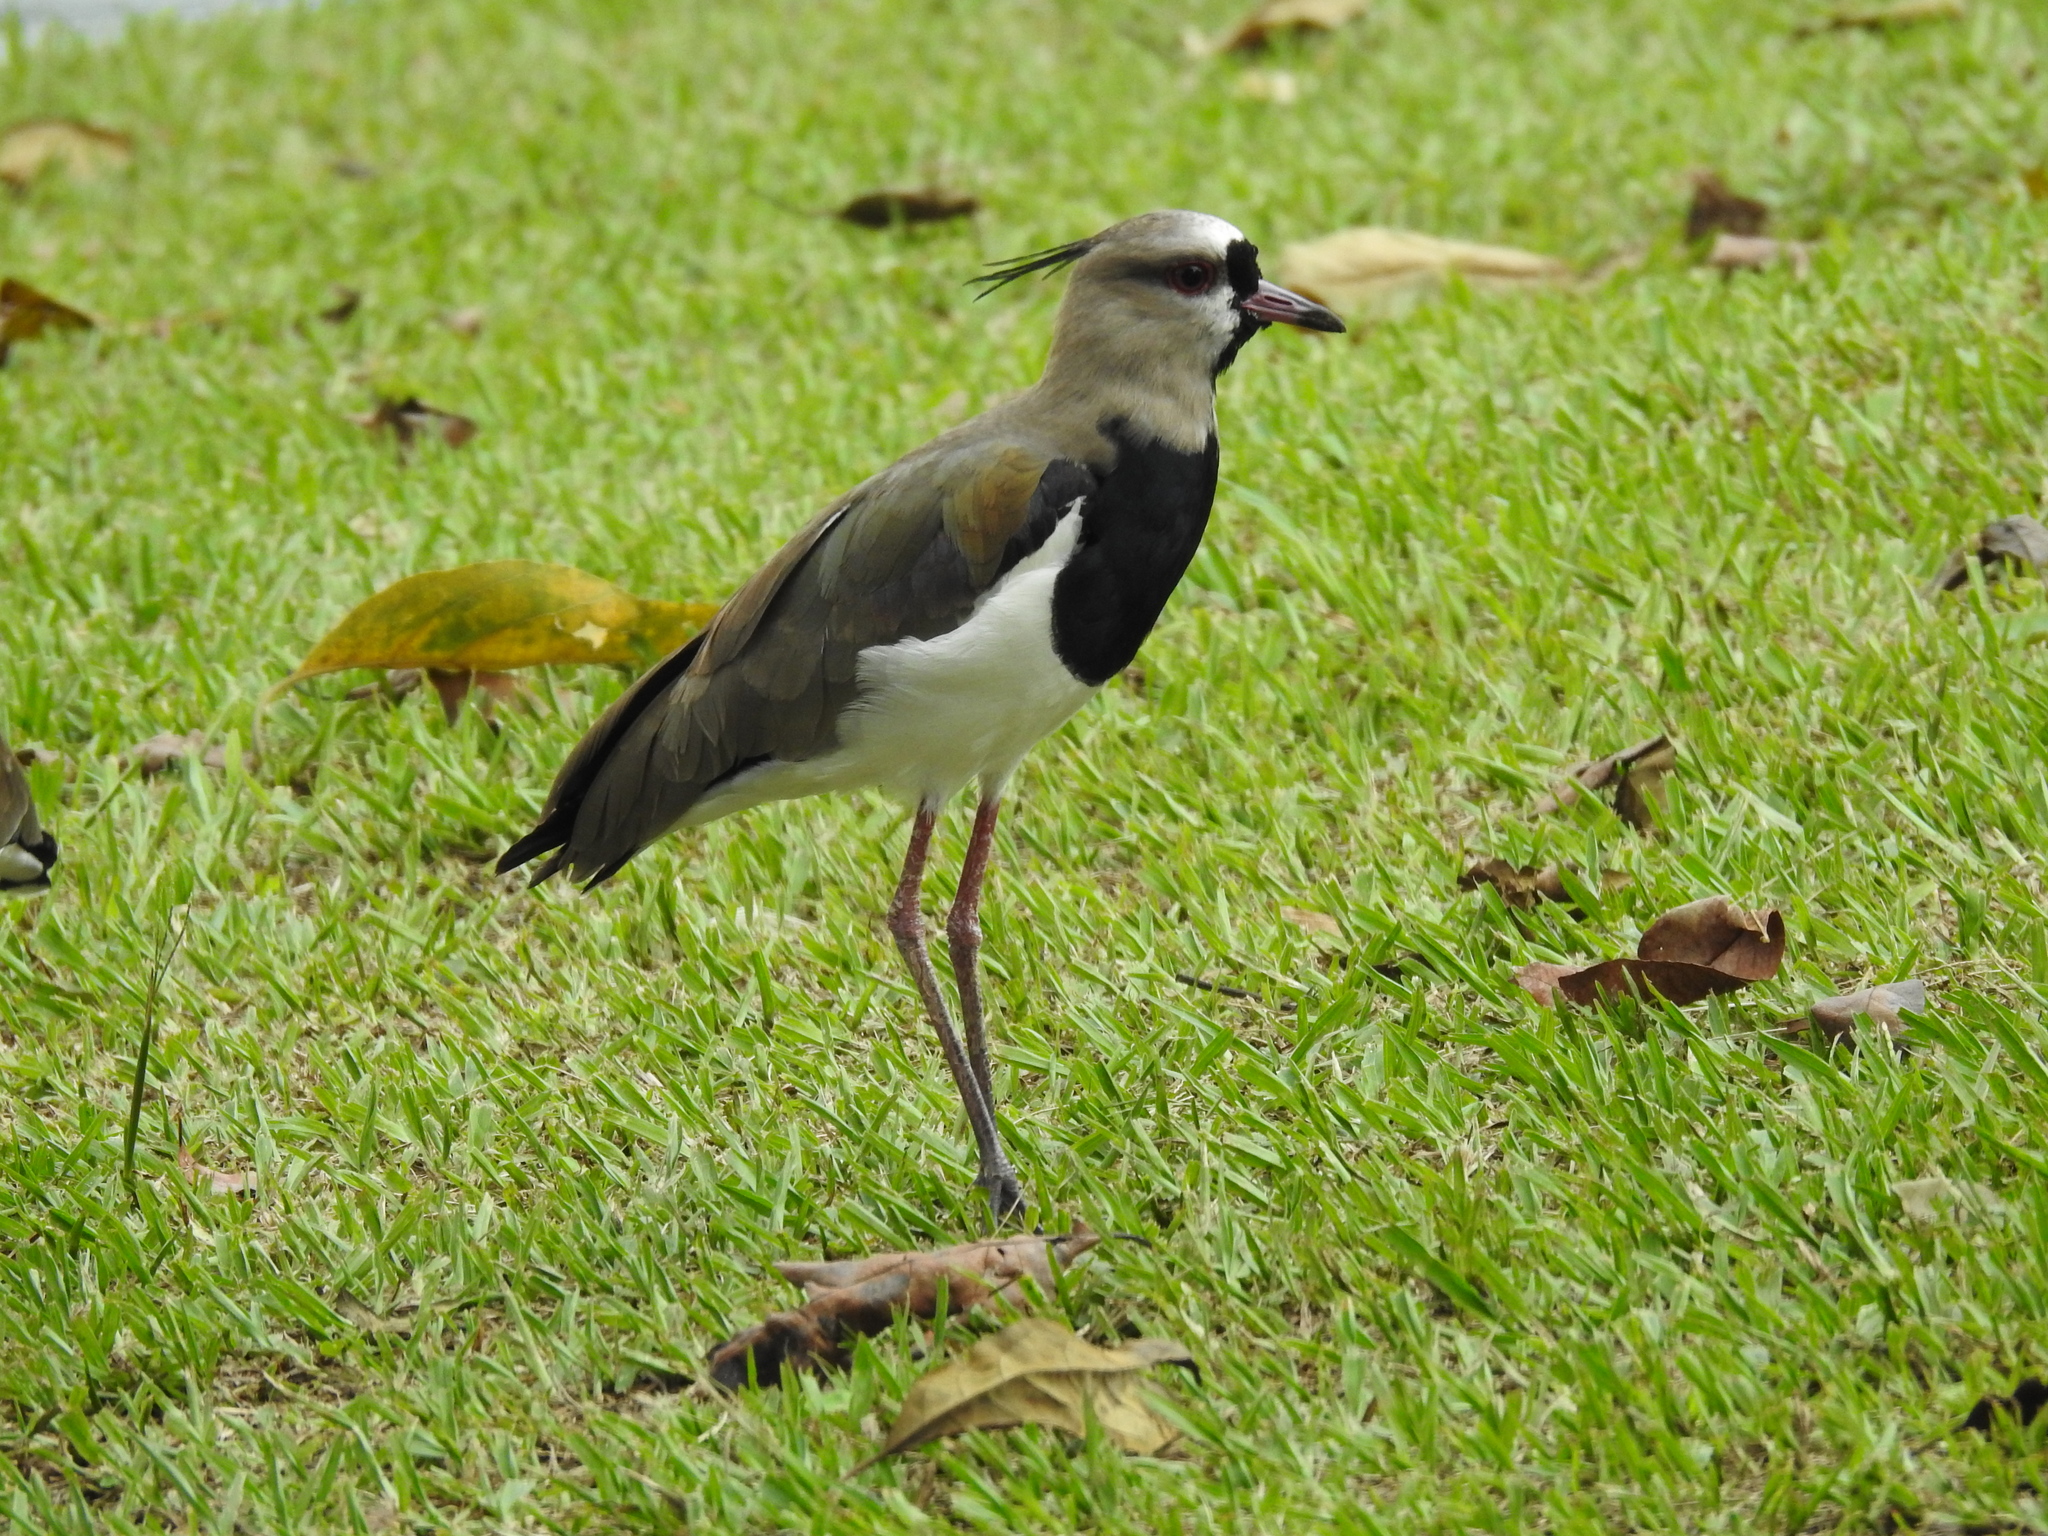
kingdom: Animalia
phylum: Chordata
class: Aves
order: Charadriiformes
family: Charadriidae
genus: Vanellus
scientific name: Vanellus chilensis
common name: Southern lapwing
